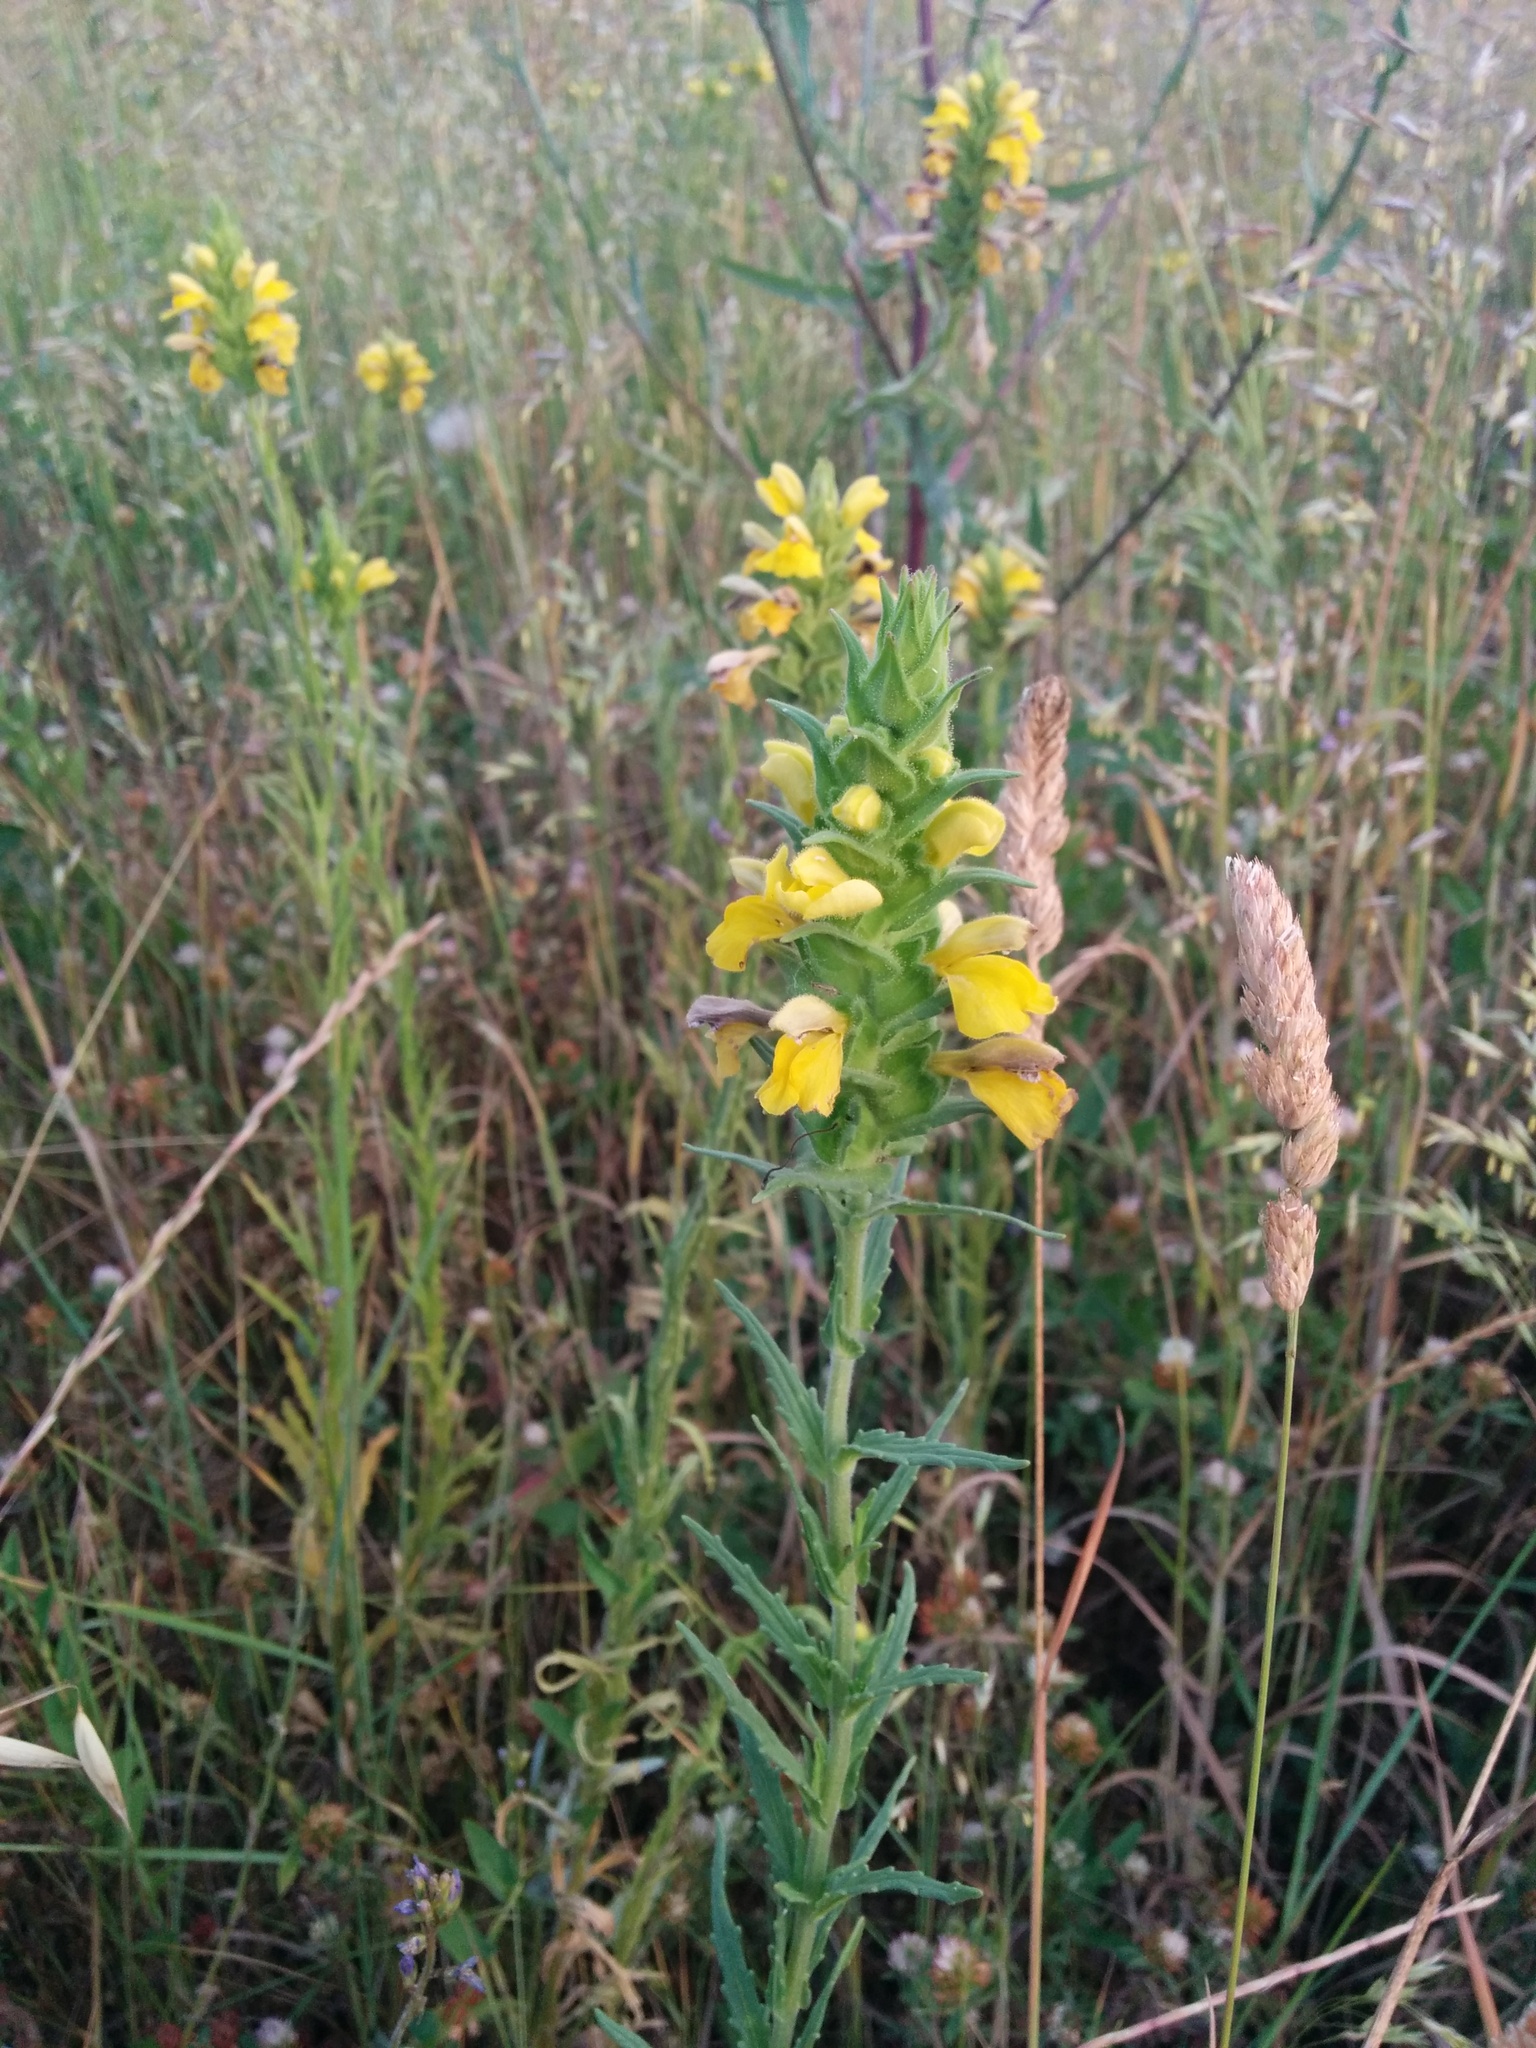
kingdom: Plantae
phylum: Tracheophyta
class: Magnoliopsida
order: Lamiales
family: Orobanchaceae
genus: Bellardia
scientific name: Bellardia trixago
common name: Mediterranean lineseed
